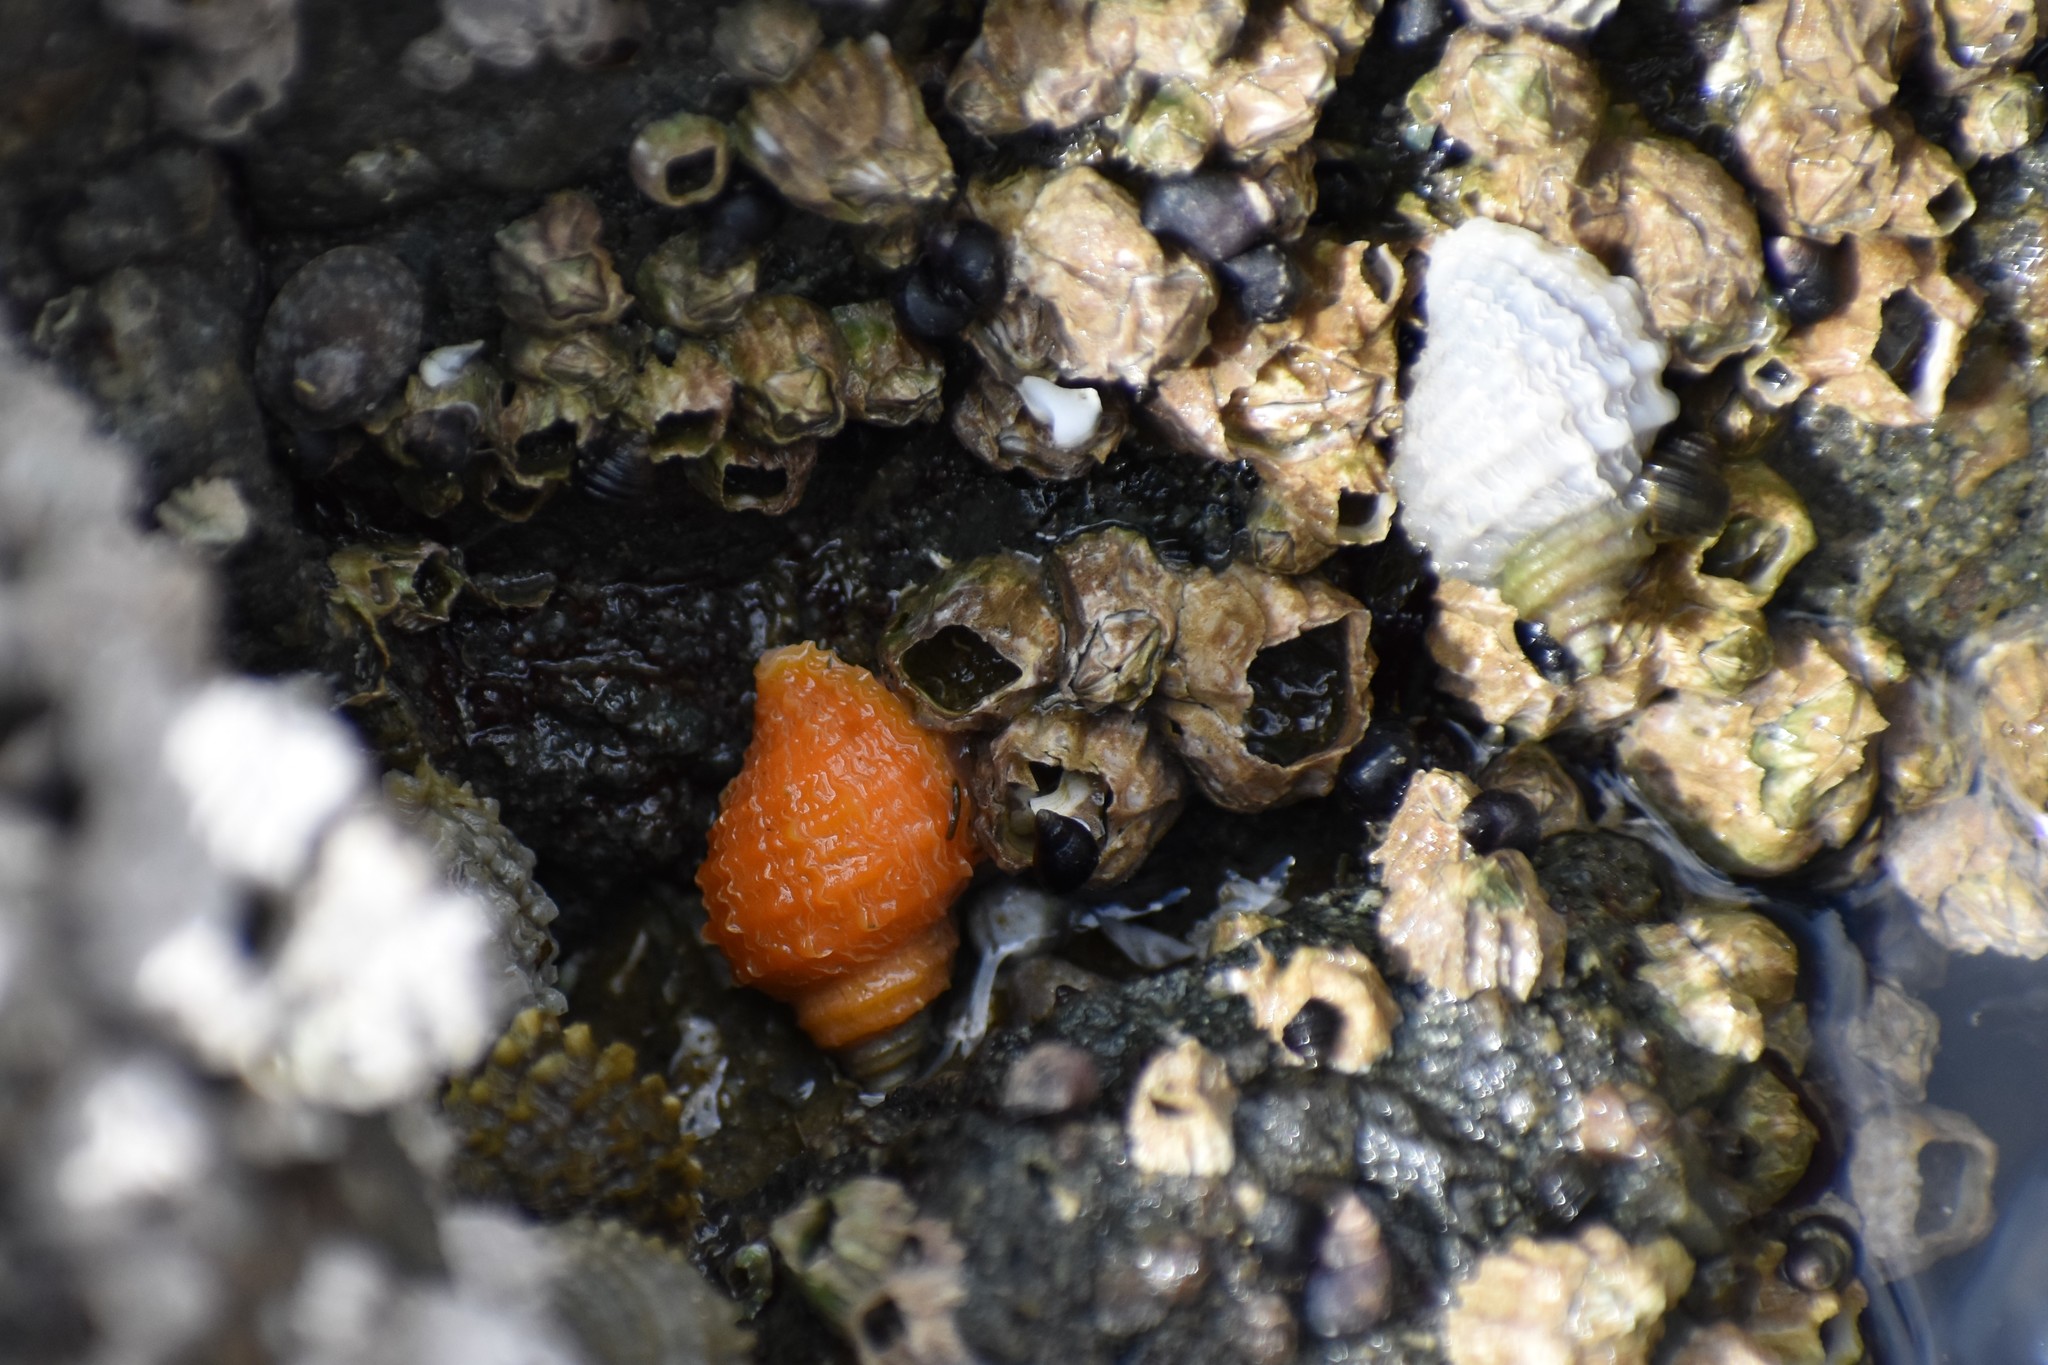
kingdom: Animalia
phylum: Mollusca
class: Gastropoda
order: Neogastropoda
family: Muricidae
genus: Nucella
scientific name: Nucella ostrina
